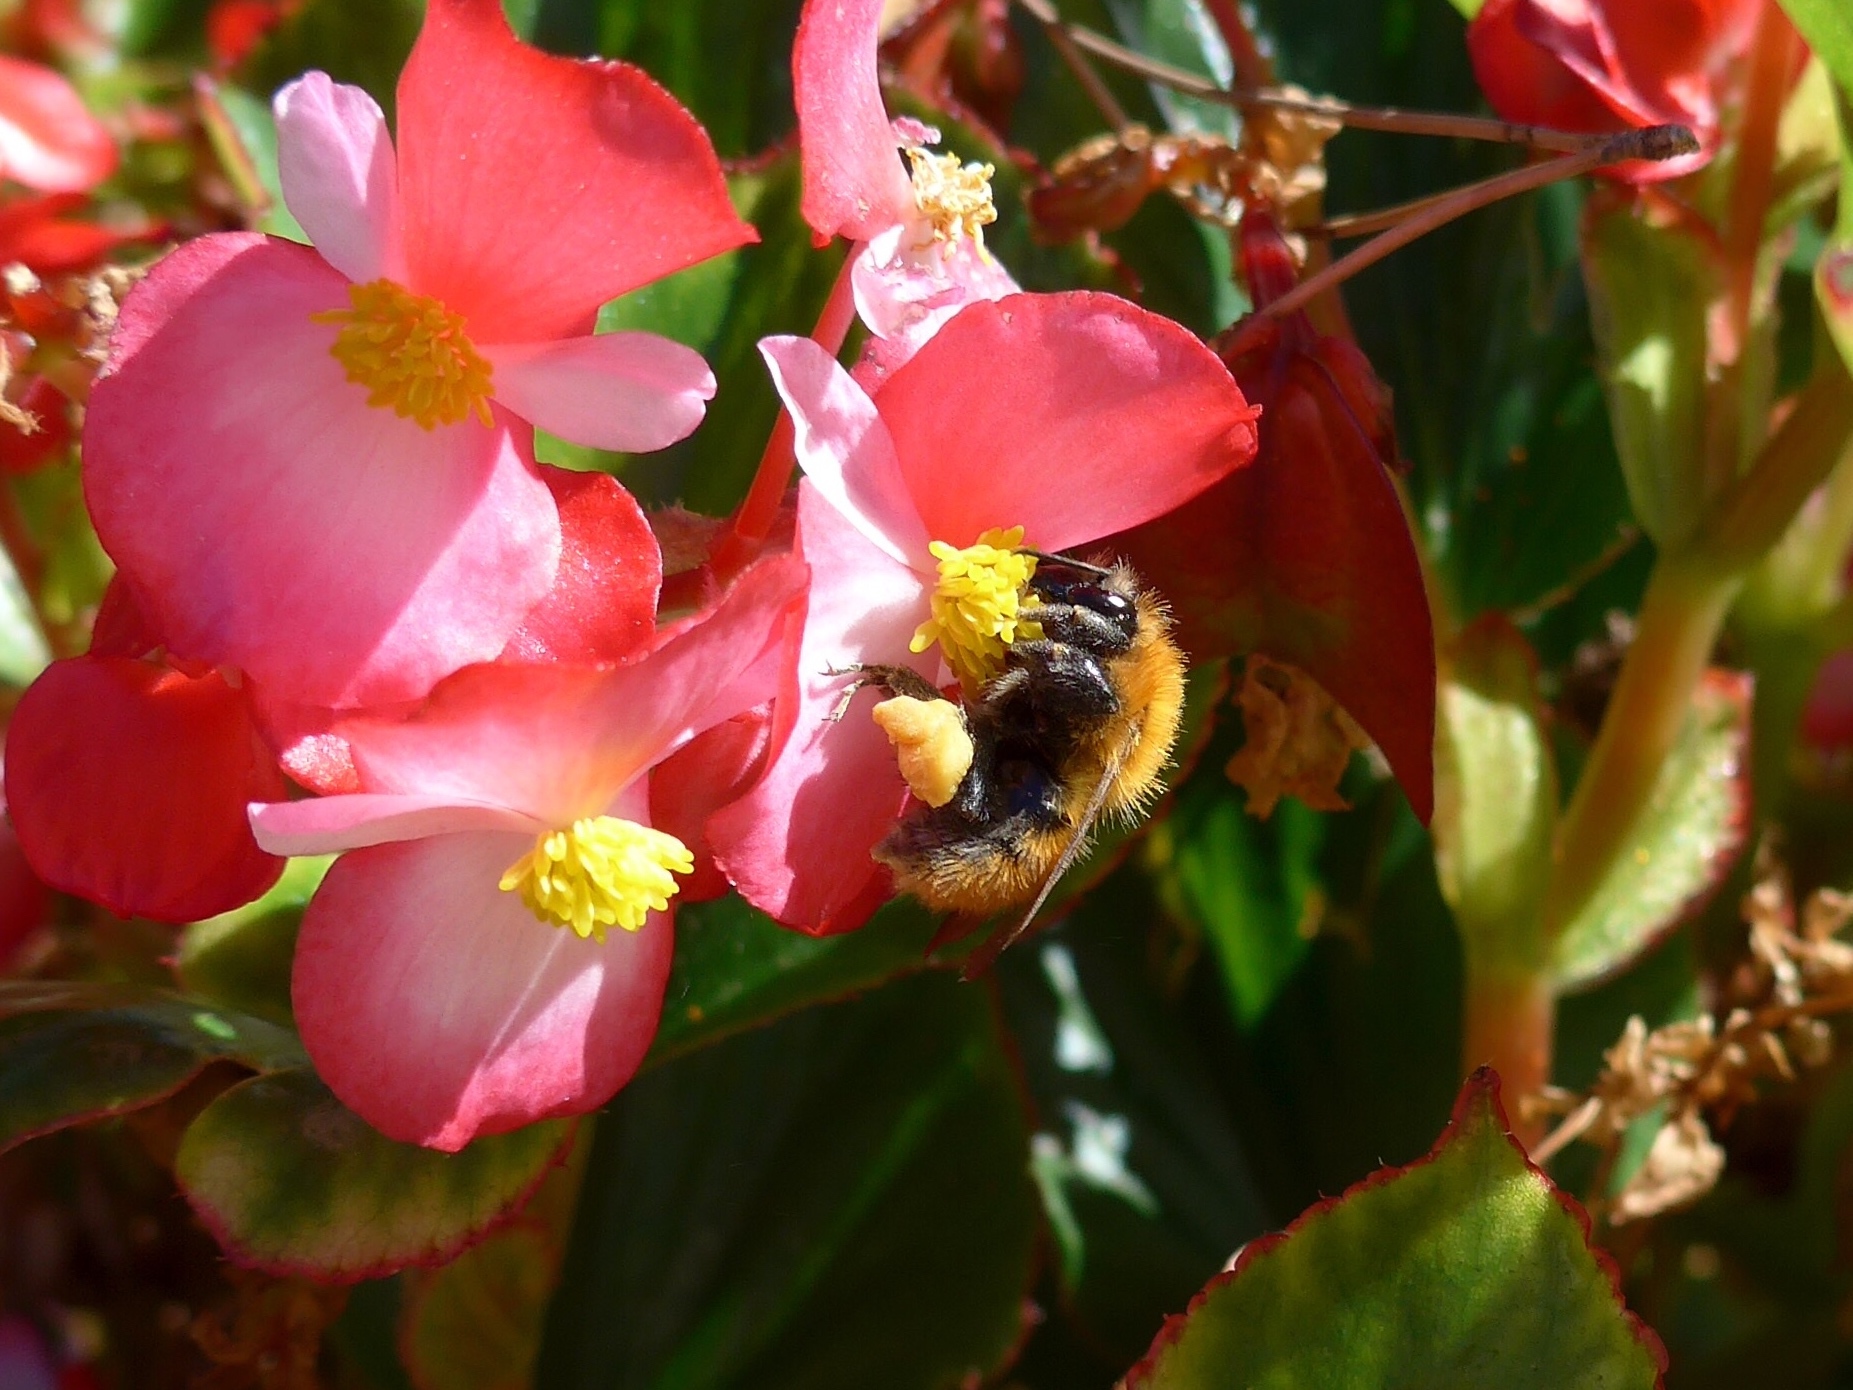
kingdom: Animalia
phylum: Arthropoda
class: Insecta
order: Hymenoptera
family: Apidae
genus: Bombus
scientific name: Bombus pascuorum
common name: Common carder bee
